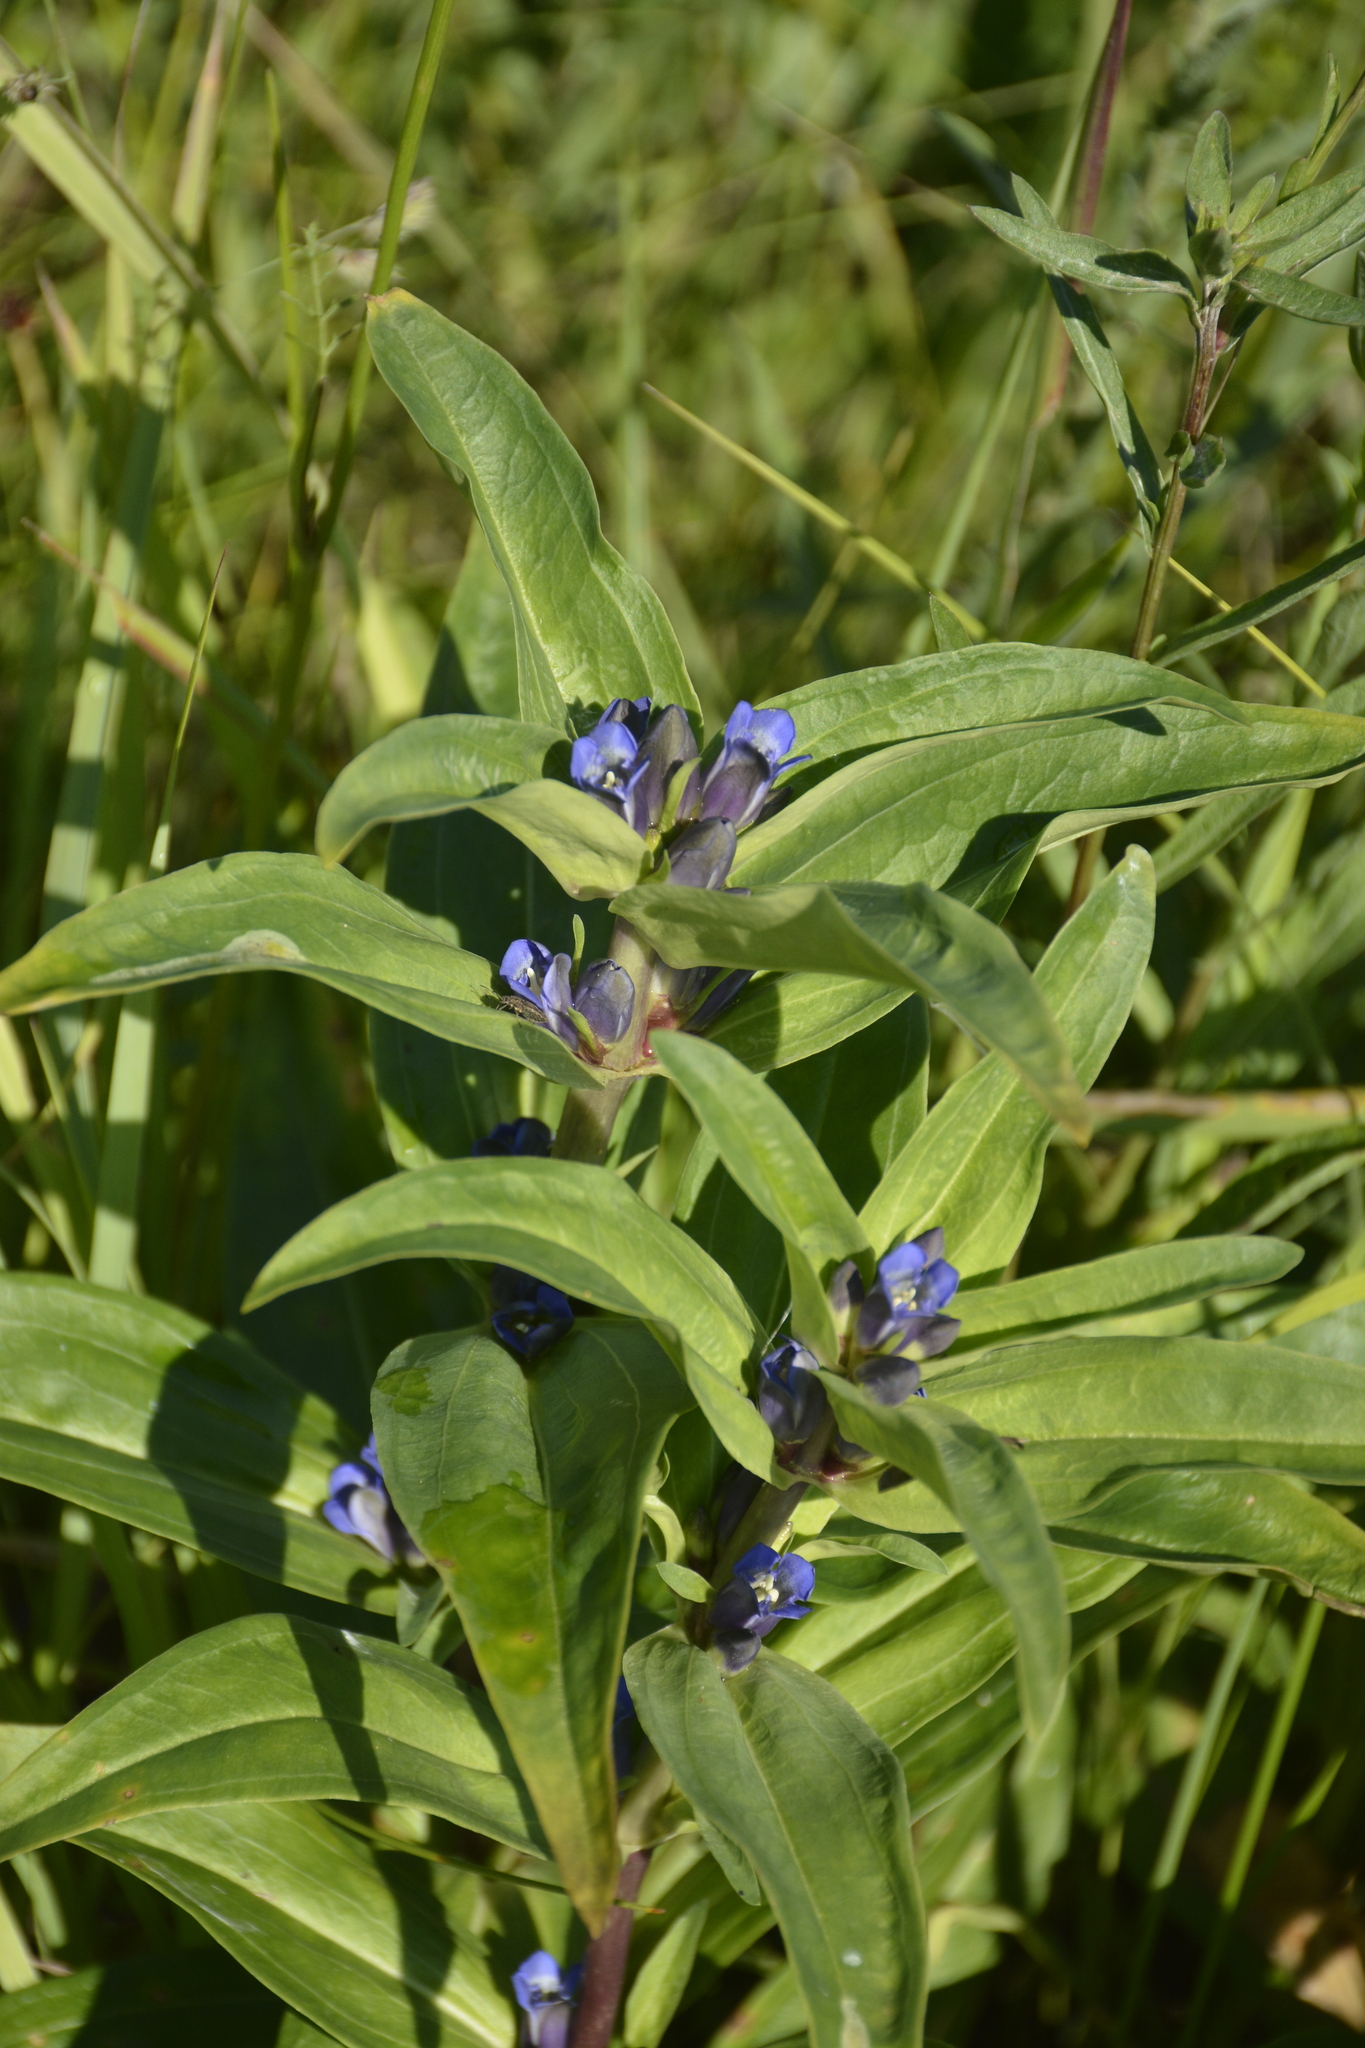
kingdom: Plantae
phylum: Tracheophyta
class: Magnoliopsida
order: Gentianales
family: Gentianaceae
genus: Gentiana
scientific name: Gentiana cruciata
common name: Cross gentian
